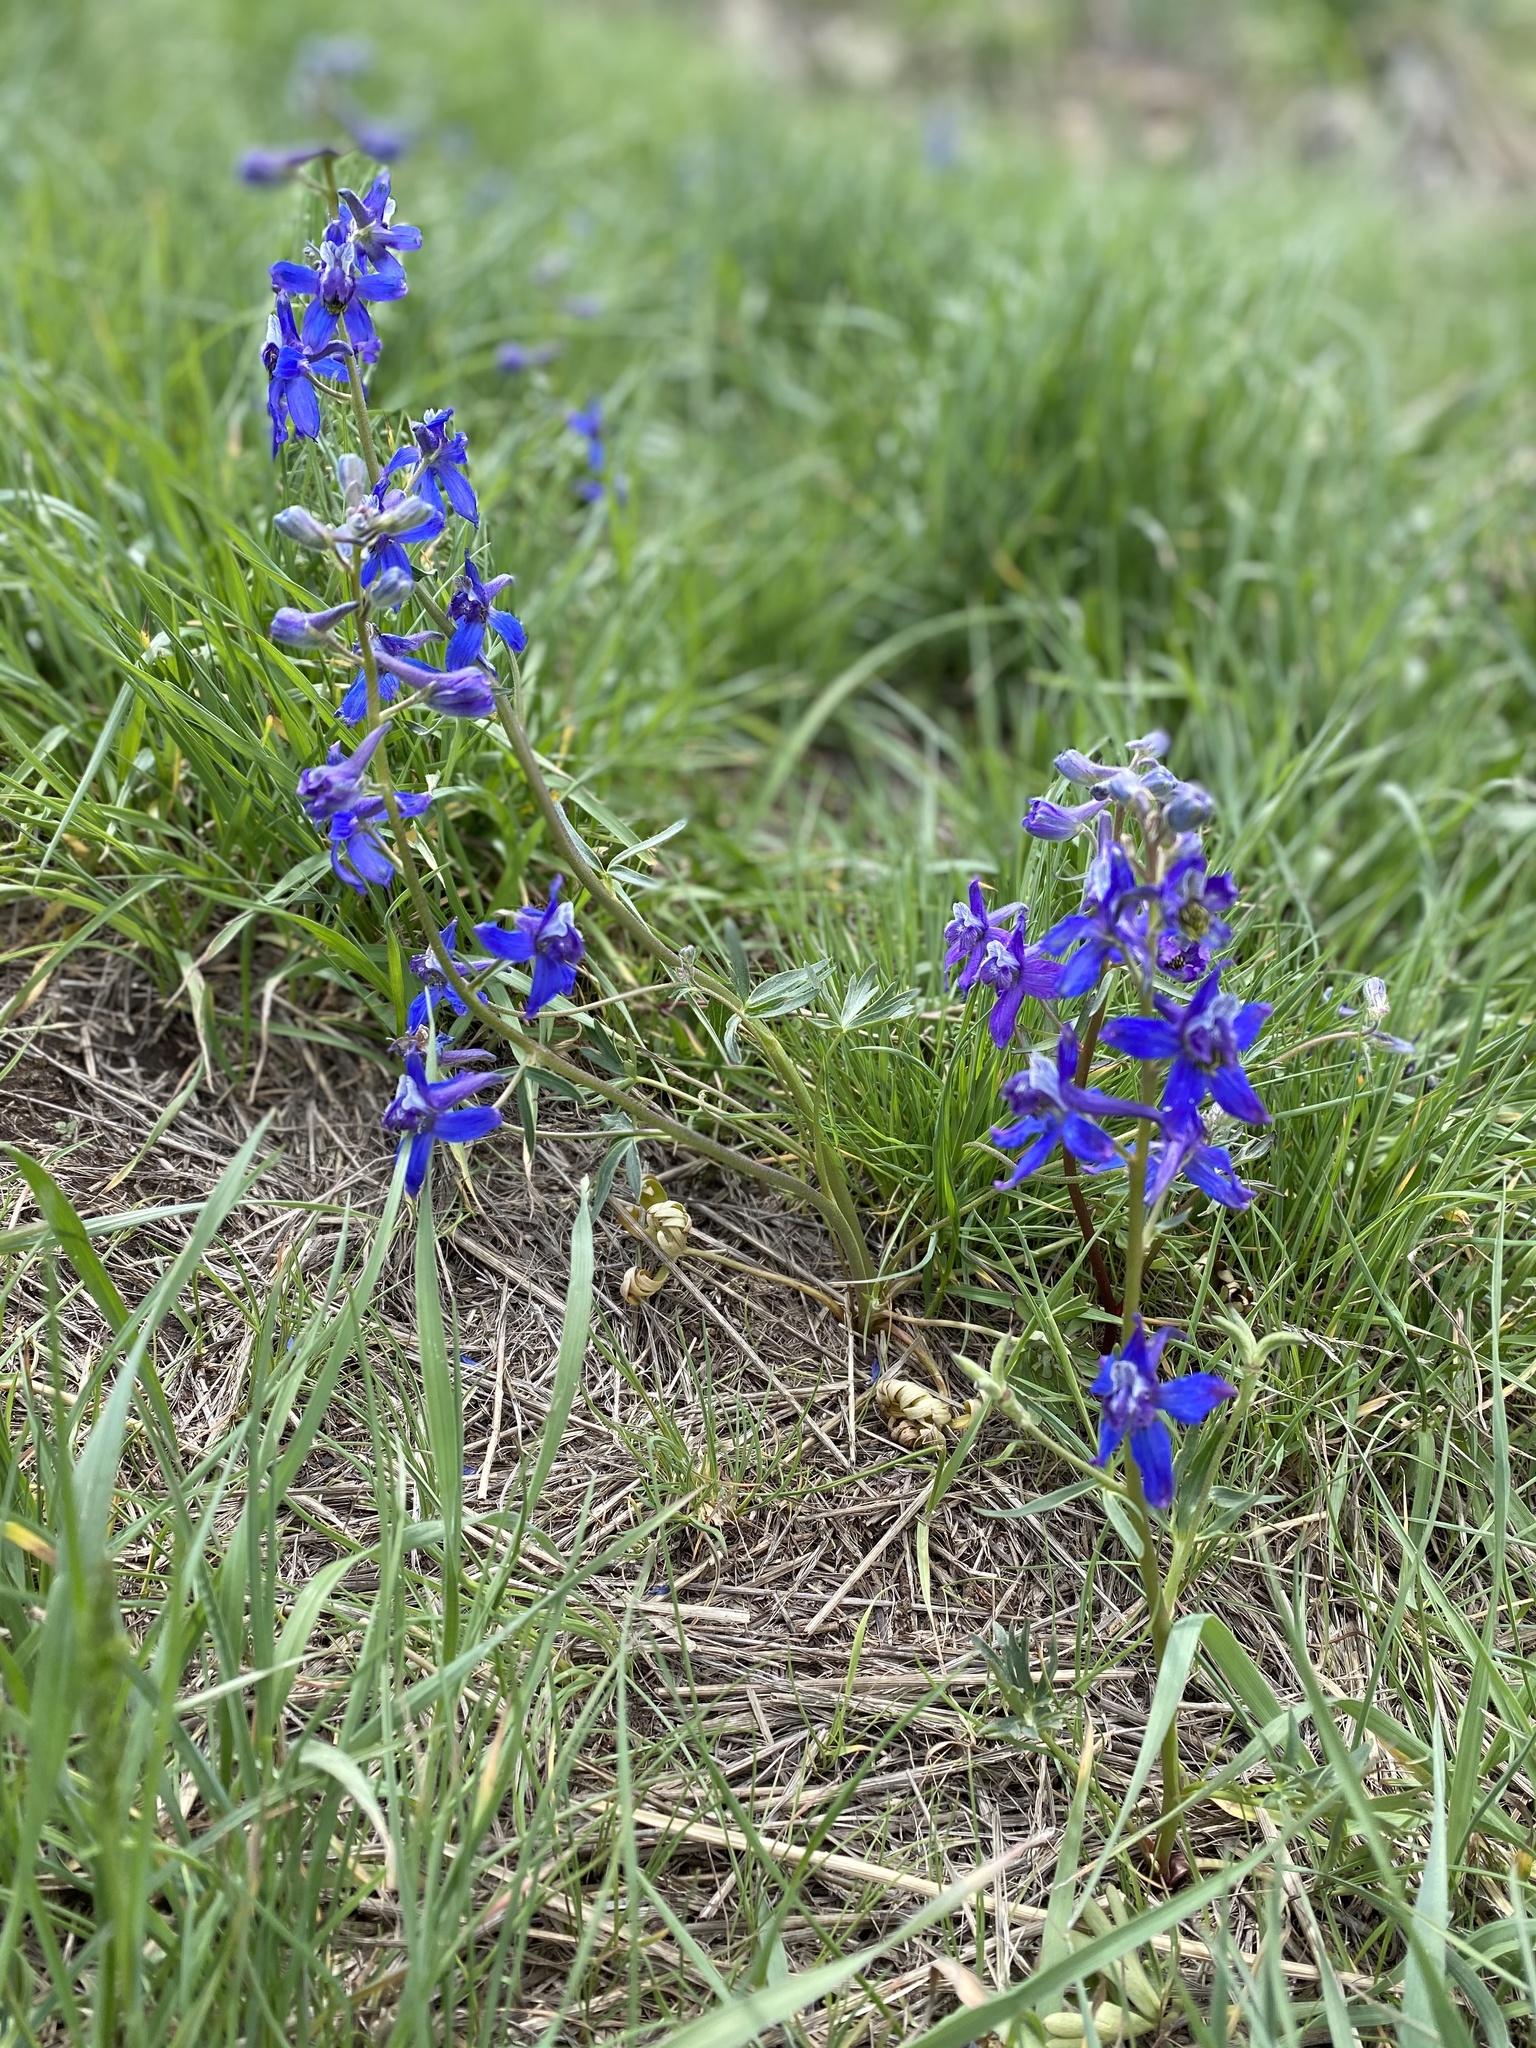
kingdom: Plantae
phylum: Tracheophyta
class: Magnoliopsida
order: Ranunculales
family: Ranunculaceae
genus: Delphinium
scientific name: Delphinium nuttallianum
